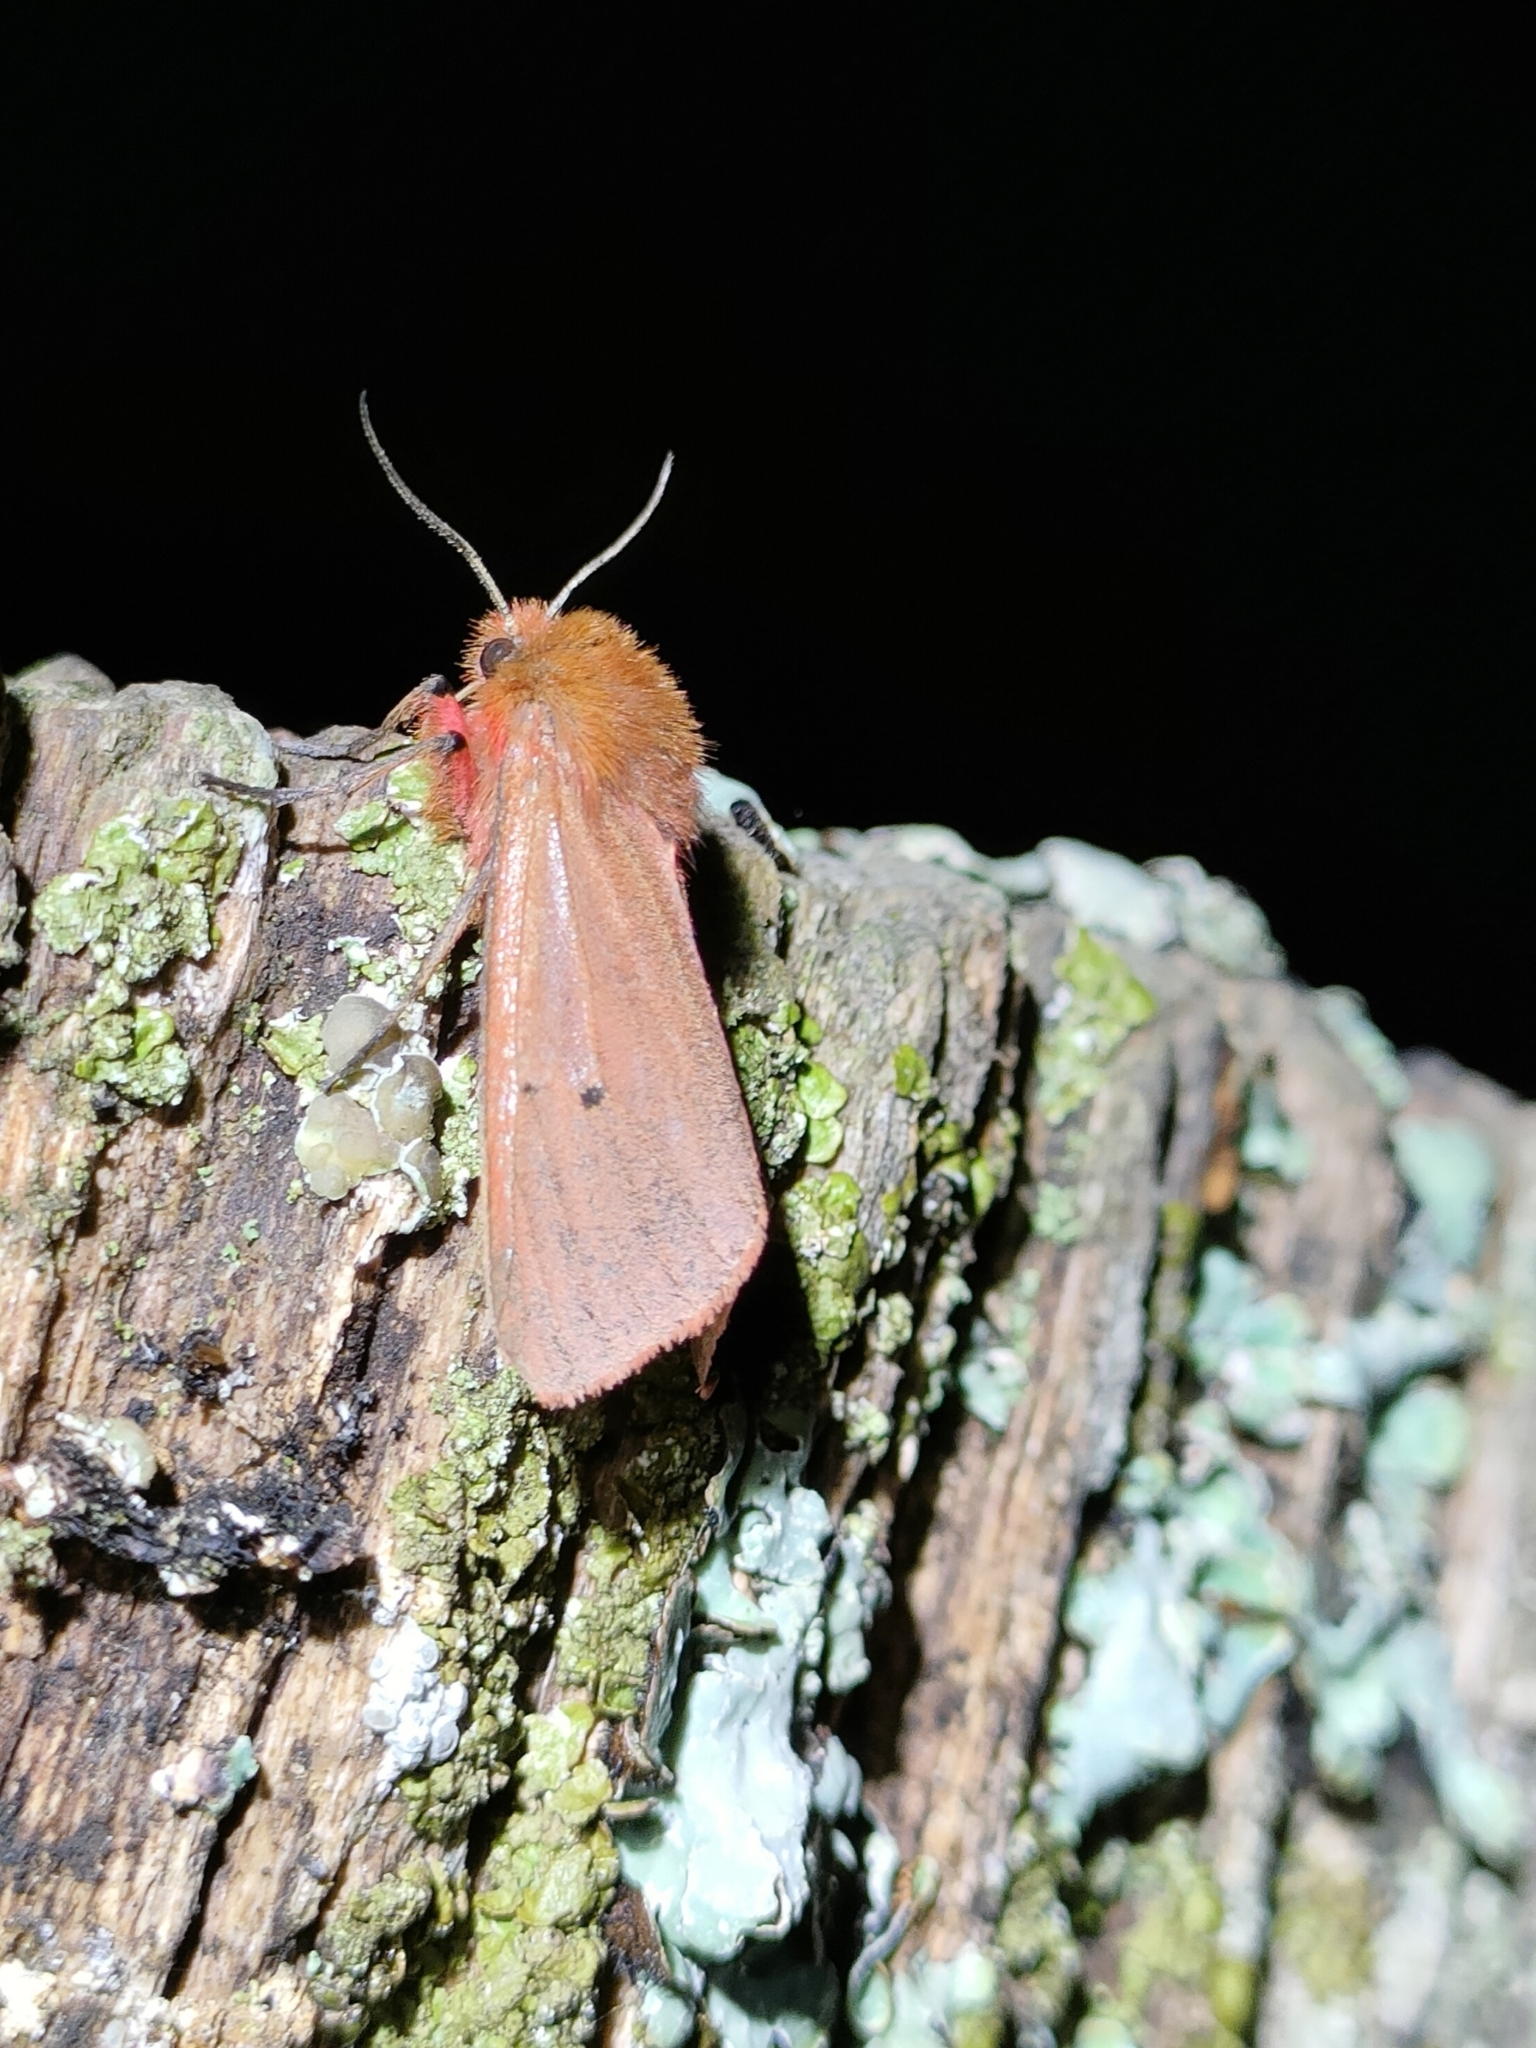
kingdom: Animalia
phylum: Arthropoda
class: Insecta
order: Lepidoptera
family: Erebidae
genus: Phragmatobia
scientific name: Phragmatobia fuliginosa
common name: Ruby tiger
